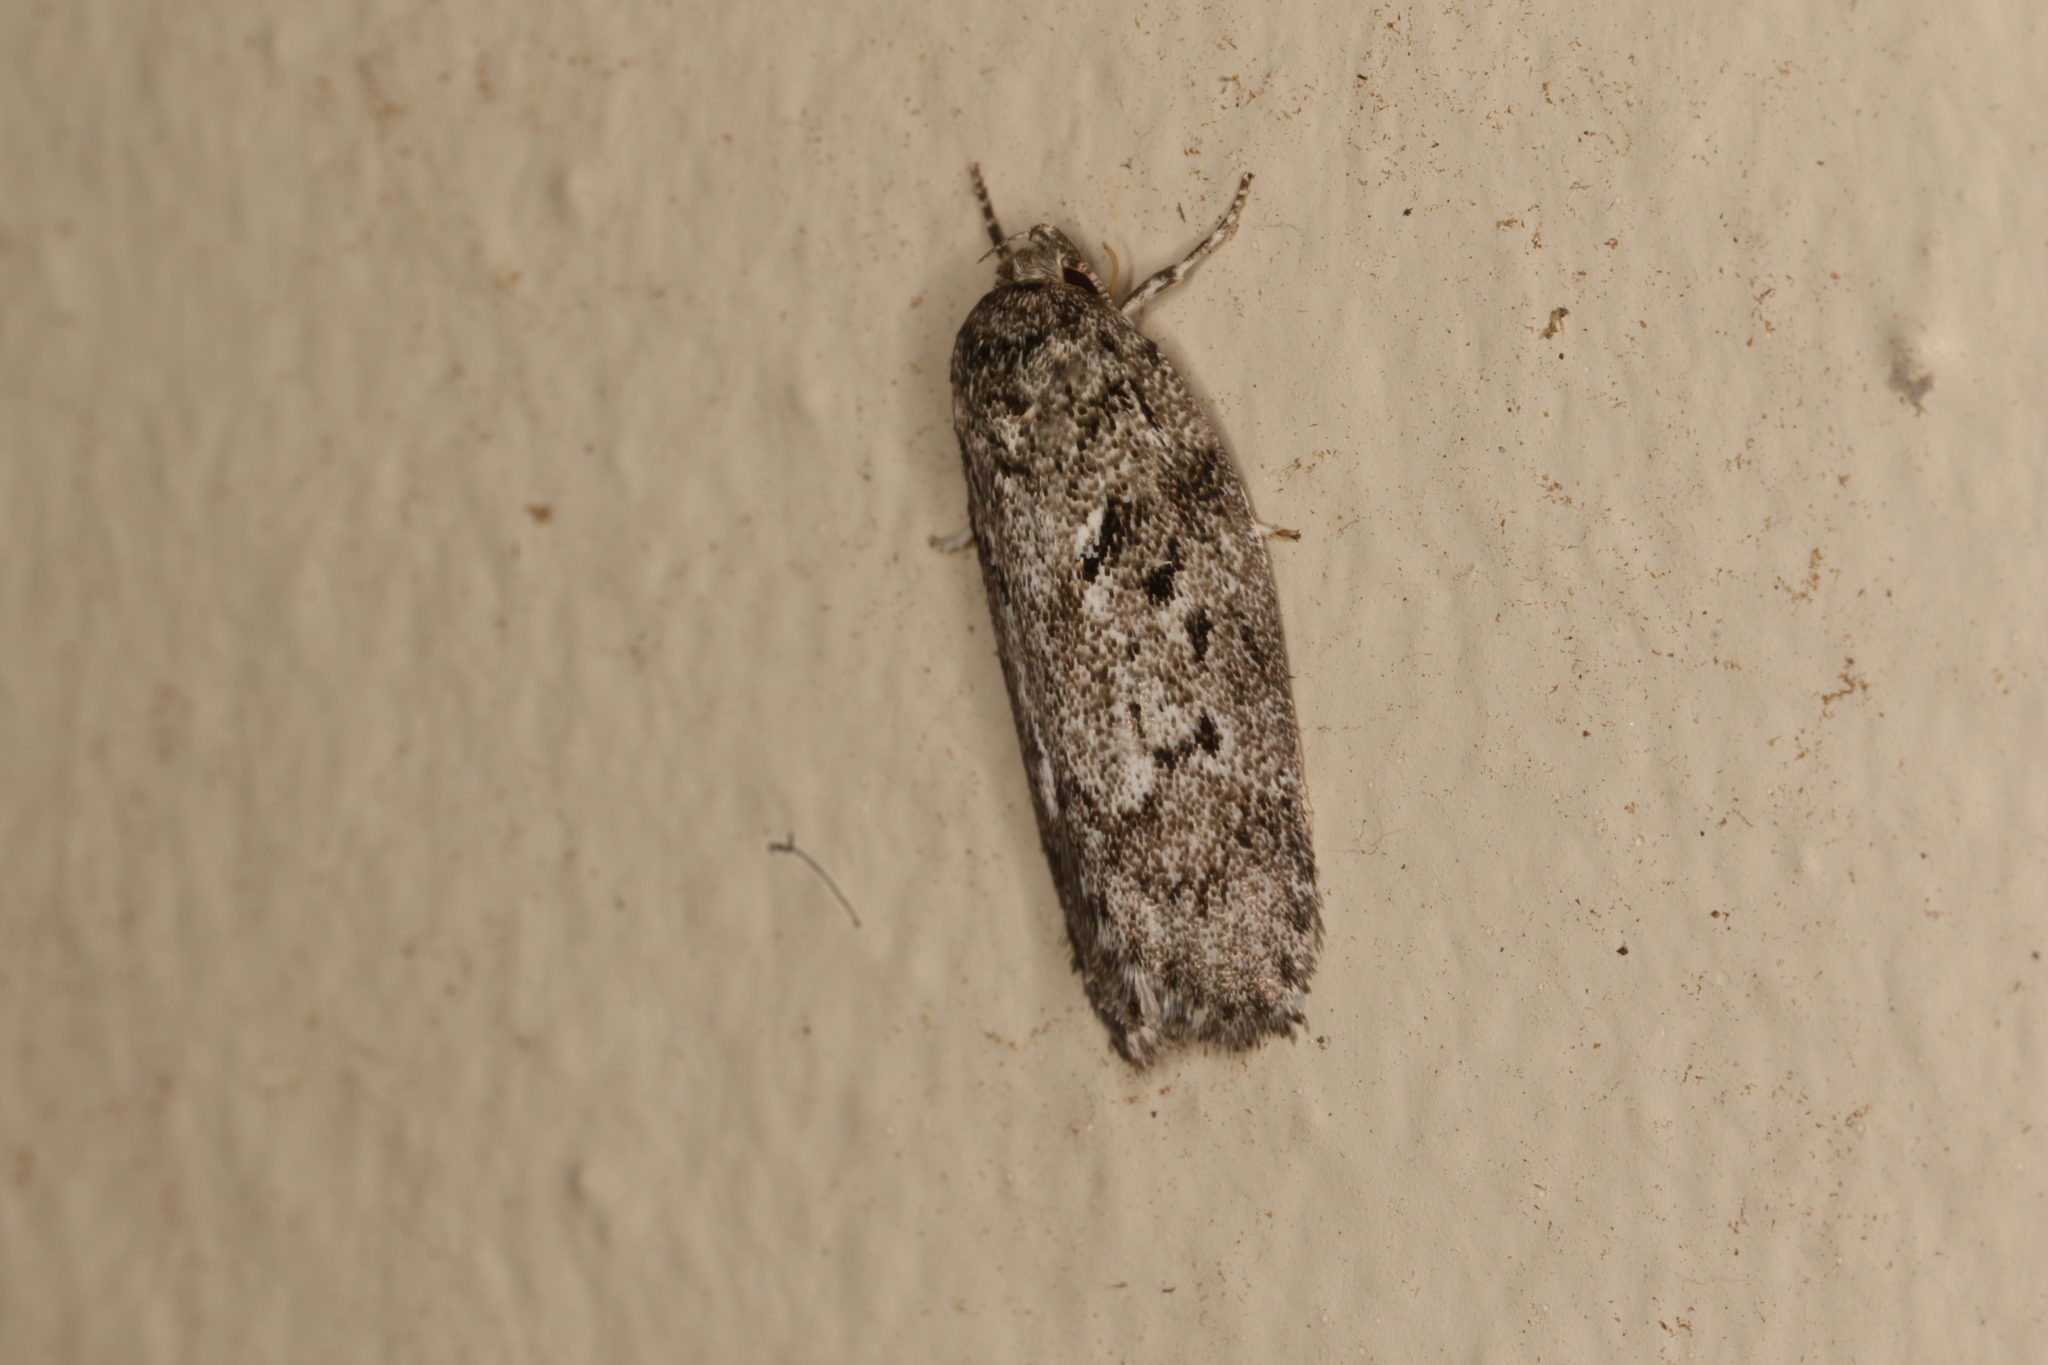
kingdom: Animalia
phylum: Arthropoda
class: Insecta
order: Lepidoptera
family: Oecophoridae
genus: Philobota
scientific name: Philobota mucida
